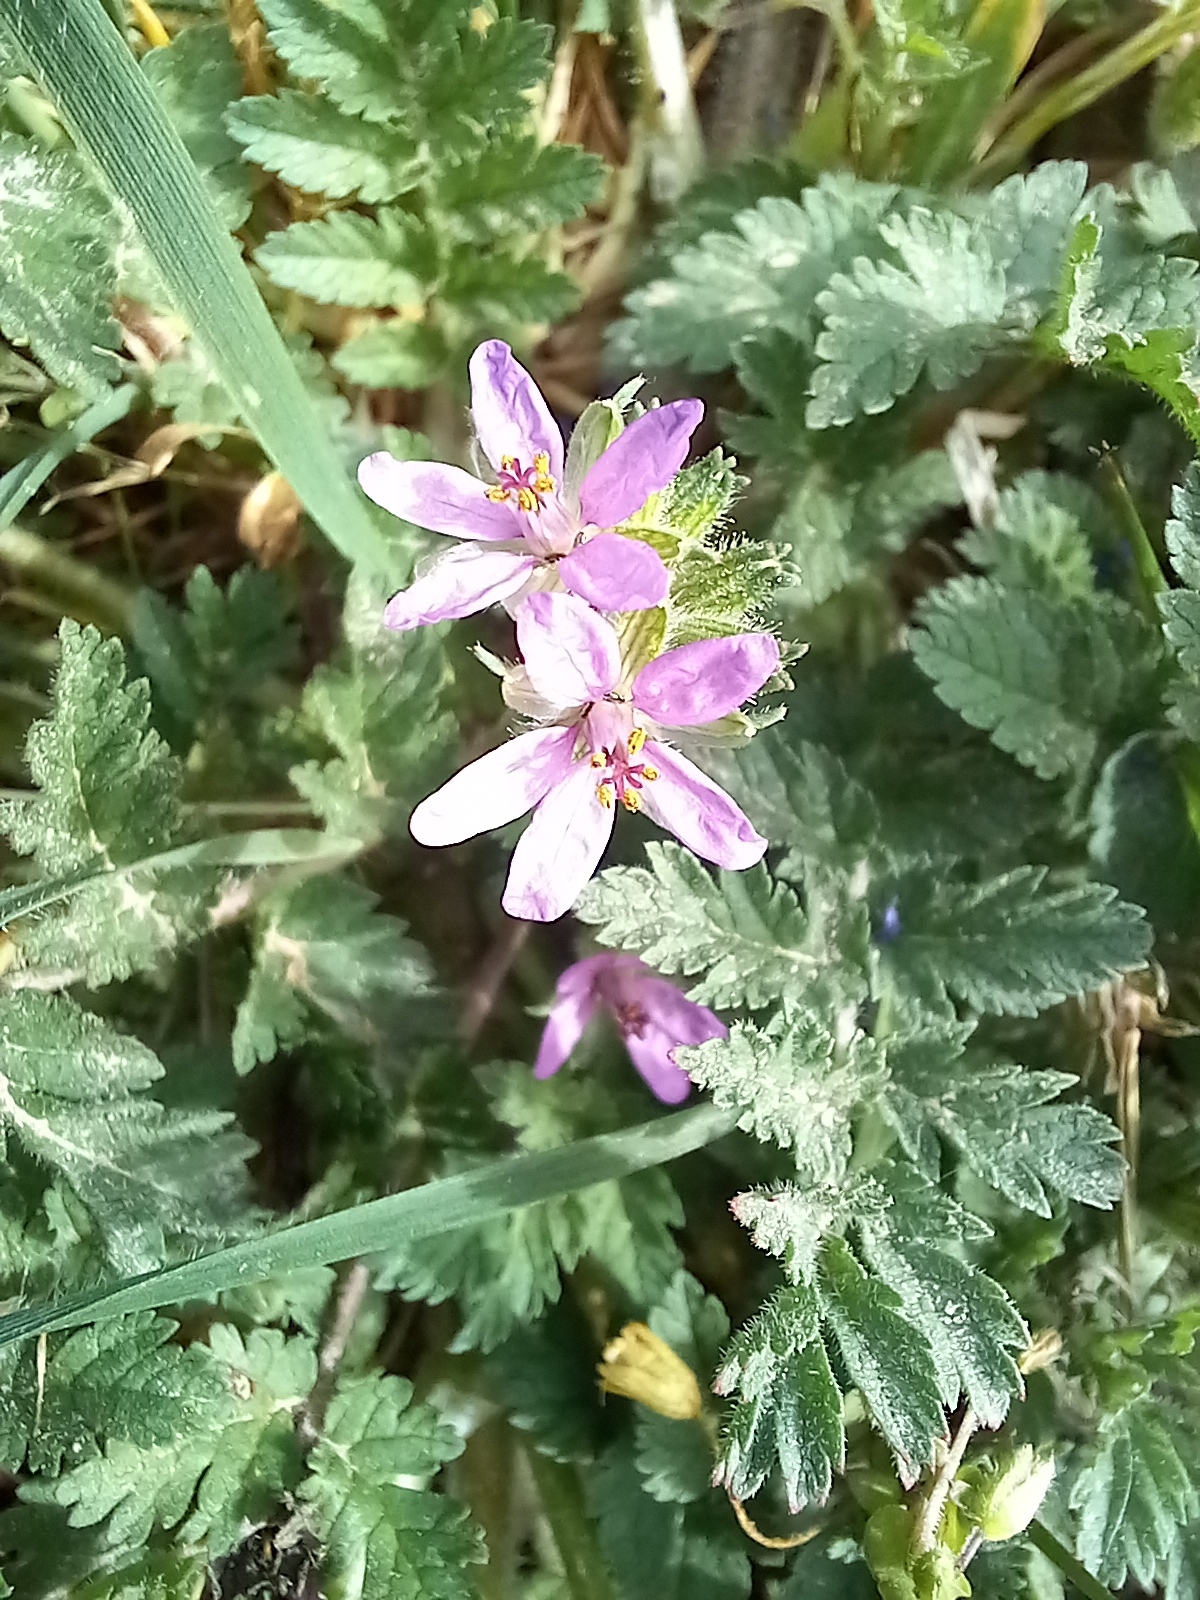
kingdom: Plantae
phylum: Tracheophyta
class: Magnoliopsida
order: Geraniales
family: Geraniaceae
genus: Erodium
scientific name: Erodium moschatum
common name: Musk stork's-bill
